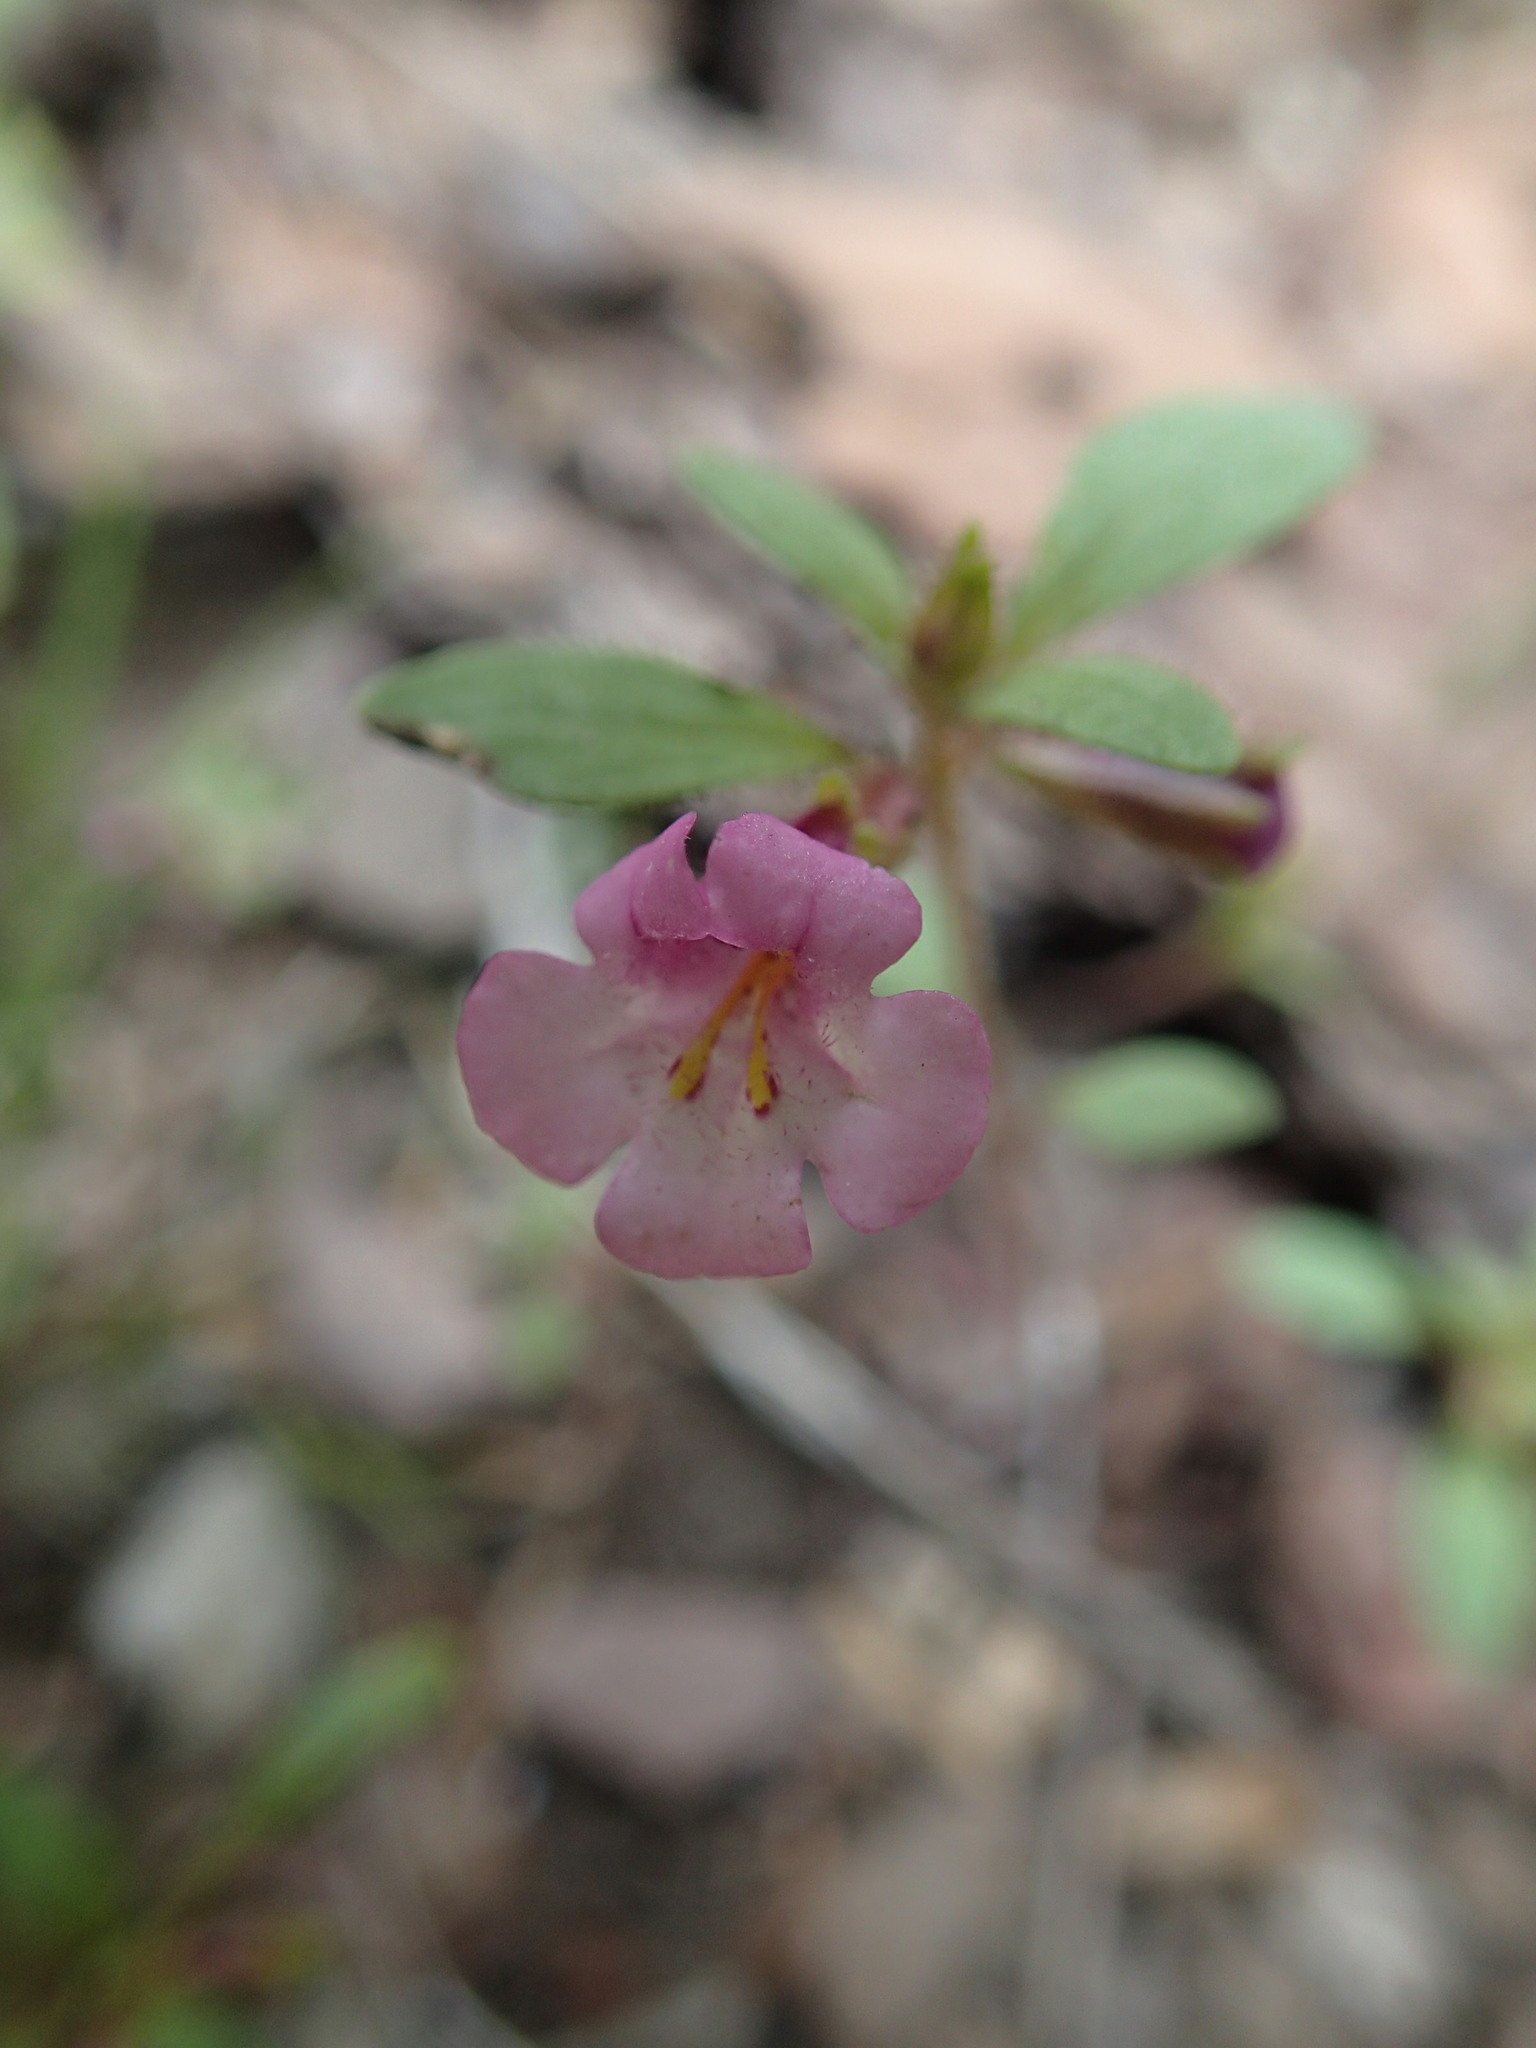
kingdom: Plantae
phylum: Tracheophyta
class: Magnoliopsida
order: Lamiales
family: Phrymaceae
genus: Diplacus
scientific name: Diplacus torreyi
